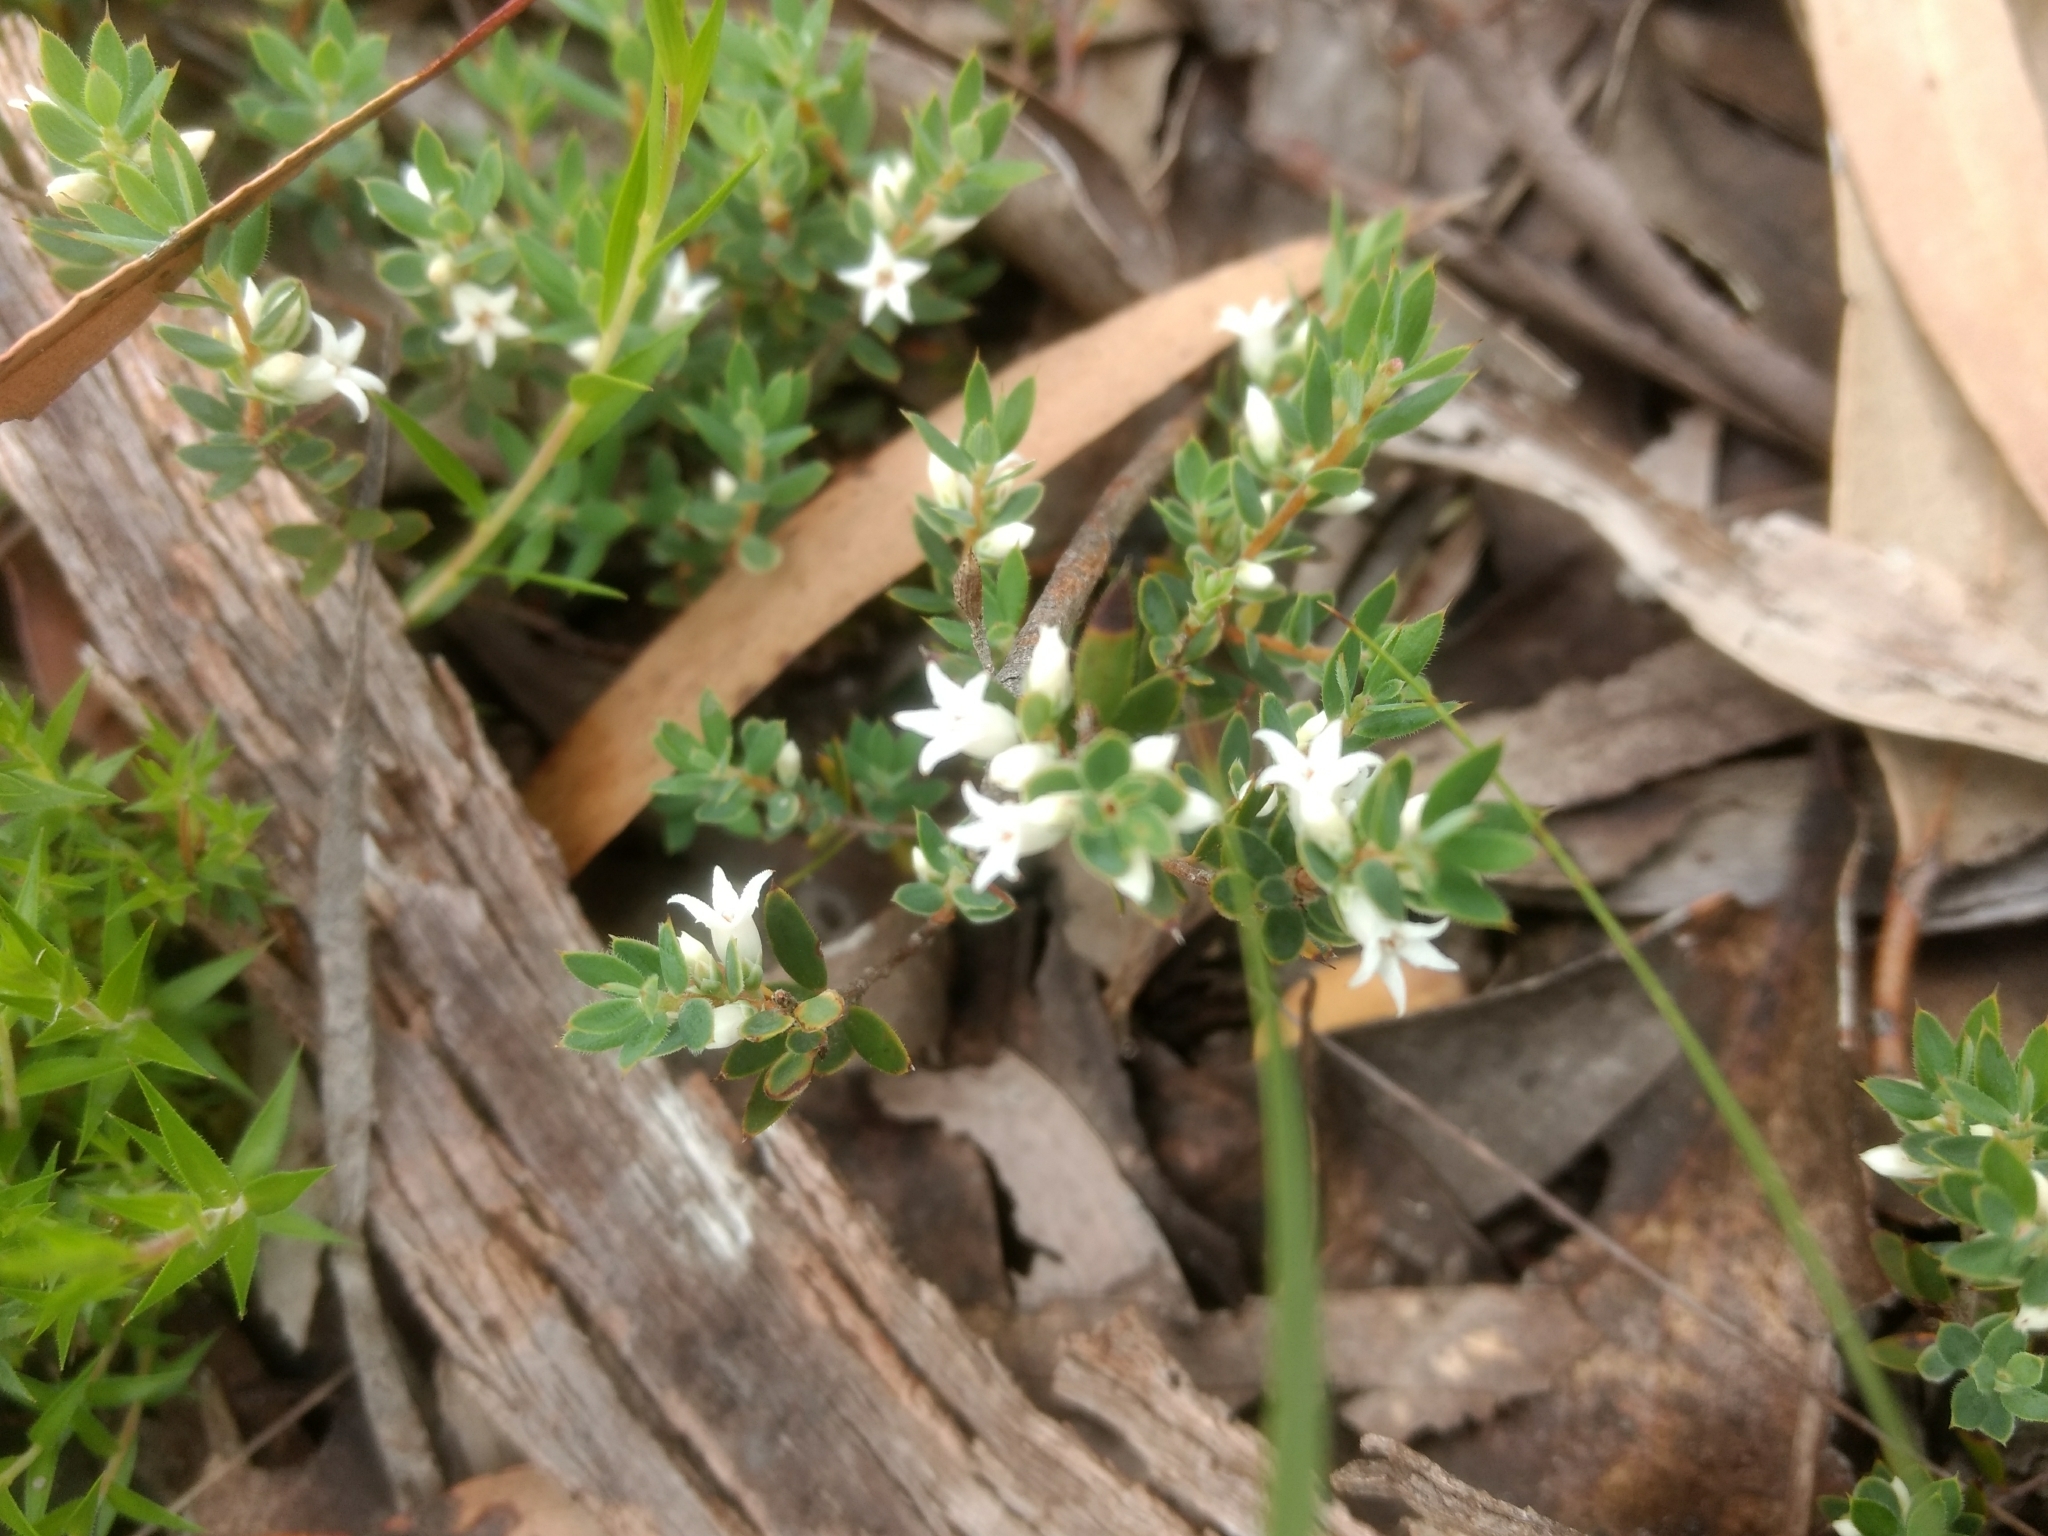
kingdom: Plantae
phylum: Tracheophyta
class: Magnoliopsida
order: Ericales
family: Ericaceae
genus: Brachyloma
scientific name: Brachyloma ciliatum
